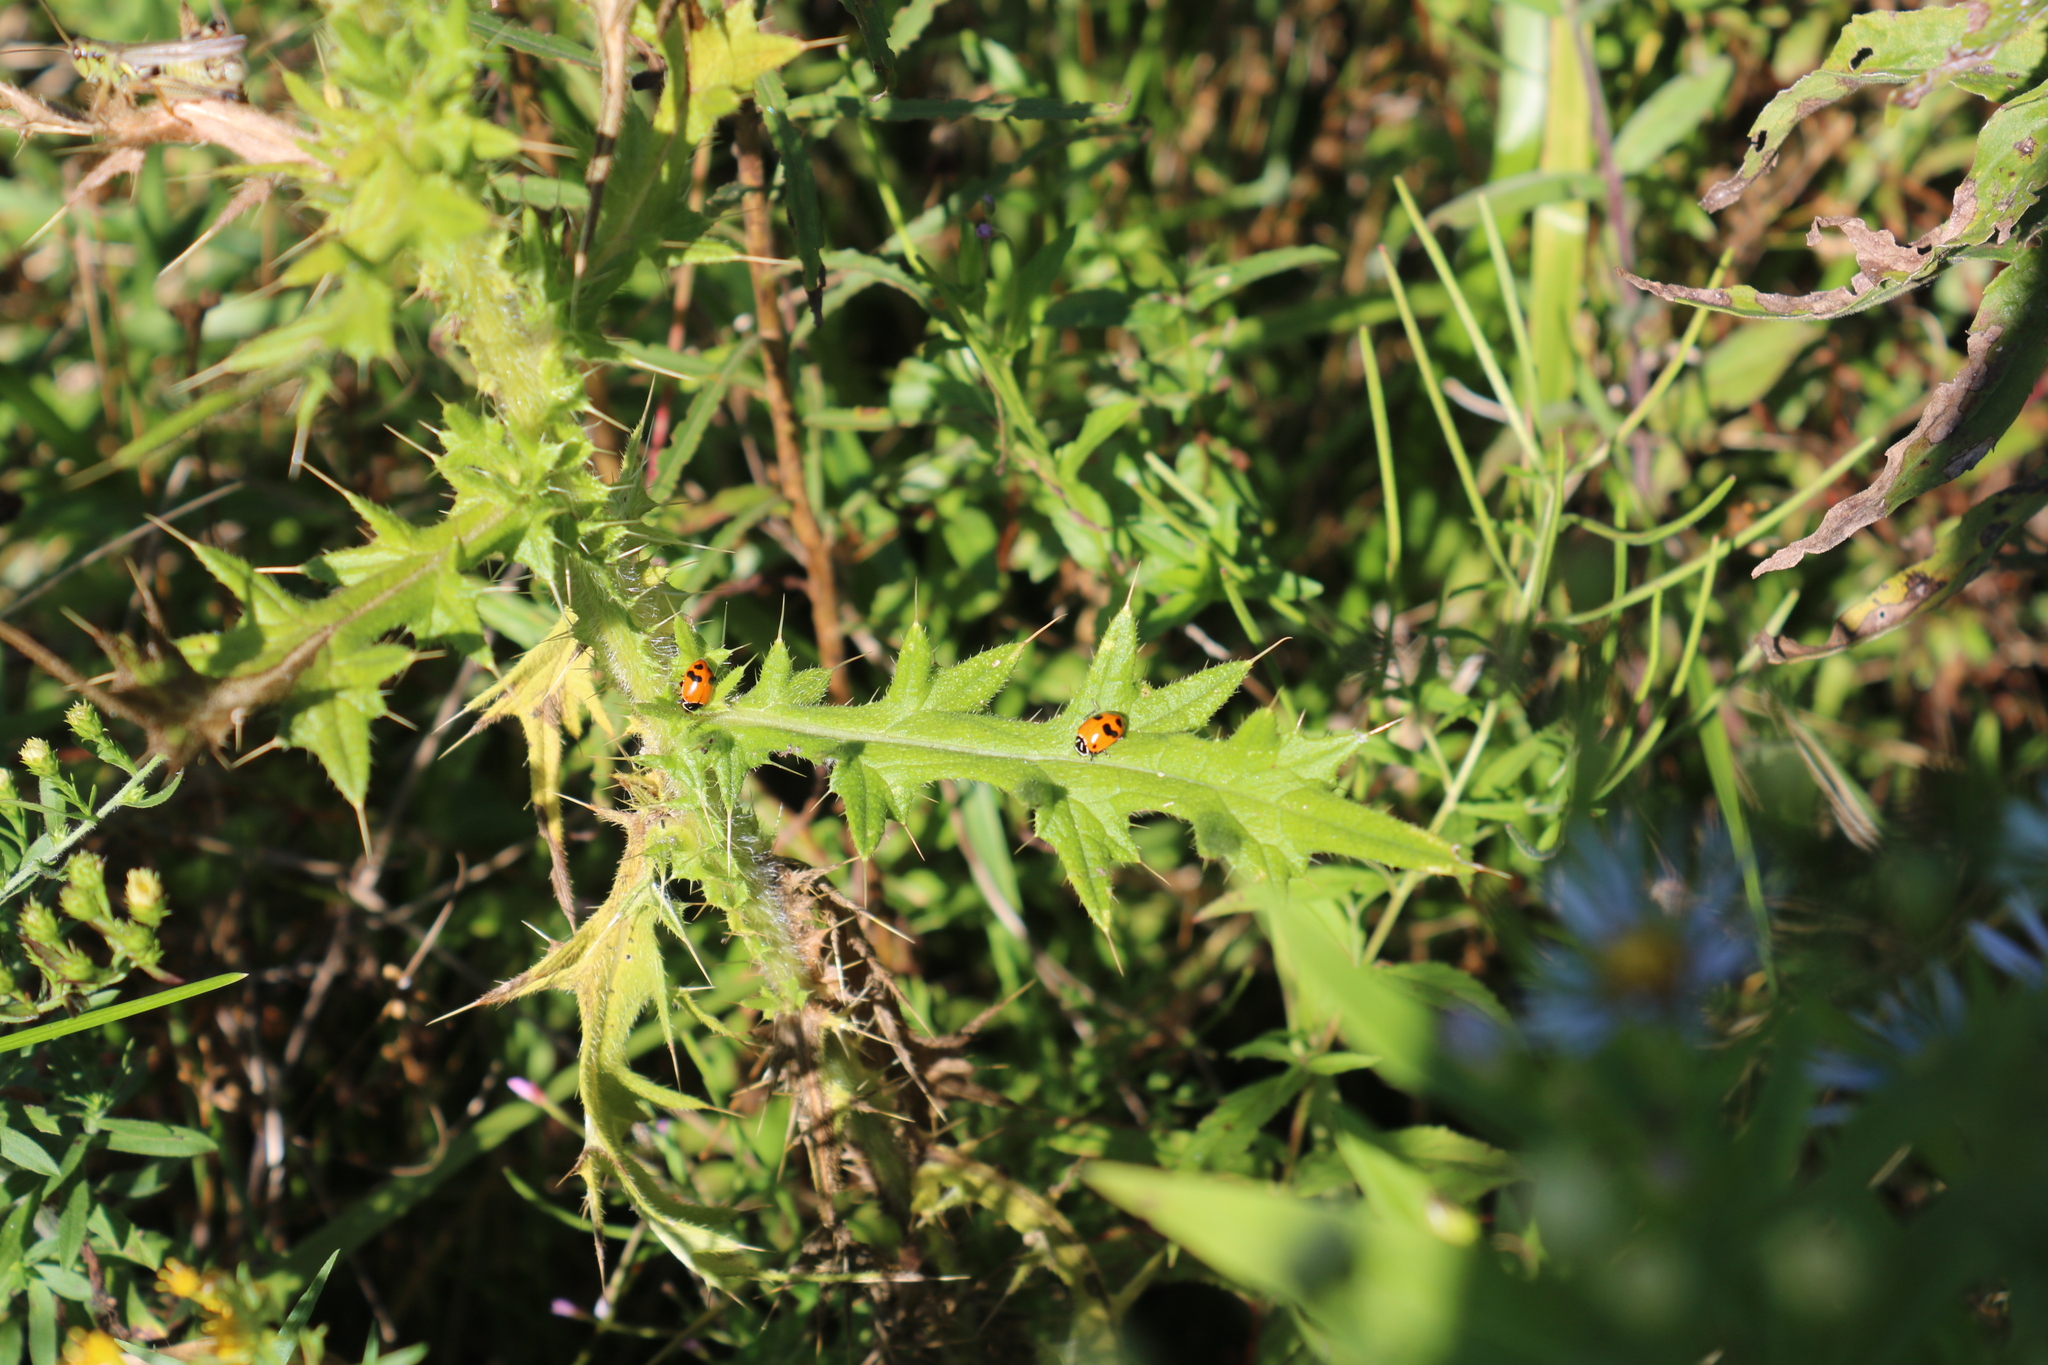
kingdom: Plantae
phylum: Tracheophyta
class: Magnoliopsida
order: Asterales
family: Asteraceae
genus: Cirsium
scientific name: Cirsium vulgare
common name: Bull thistle
